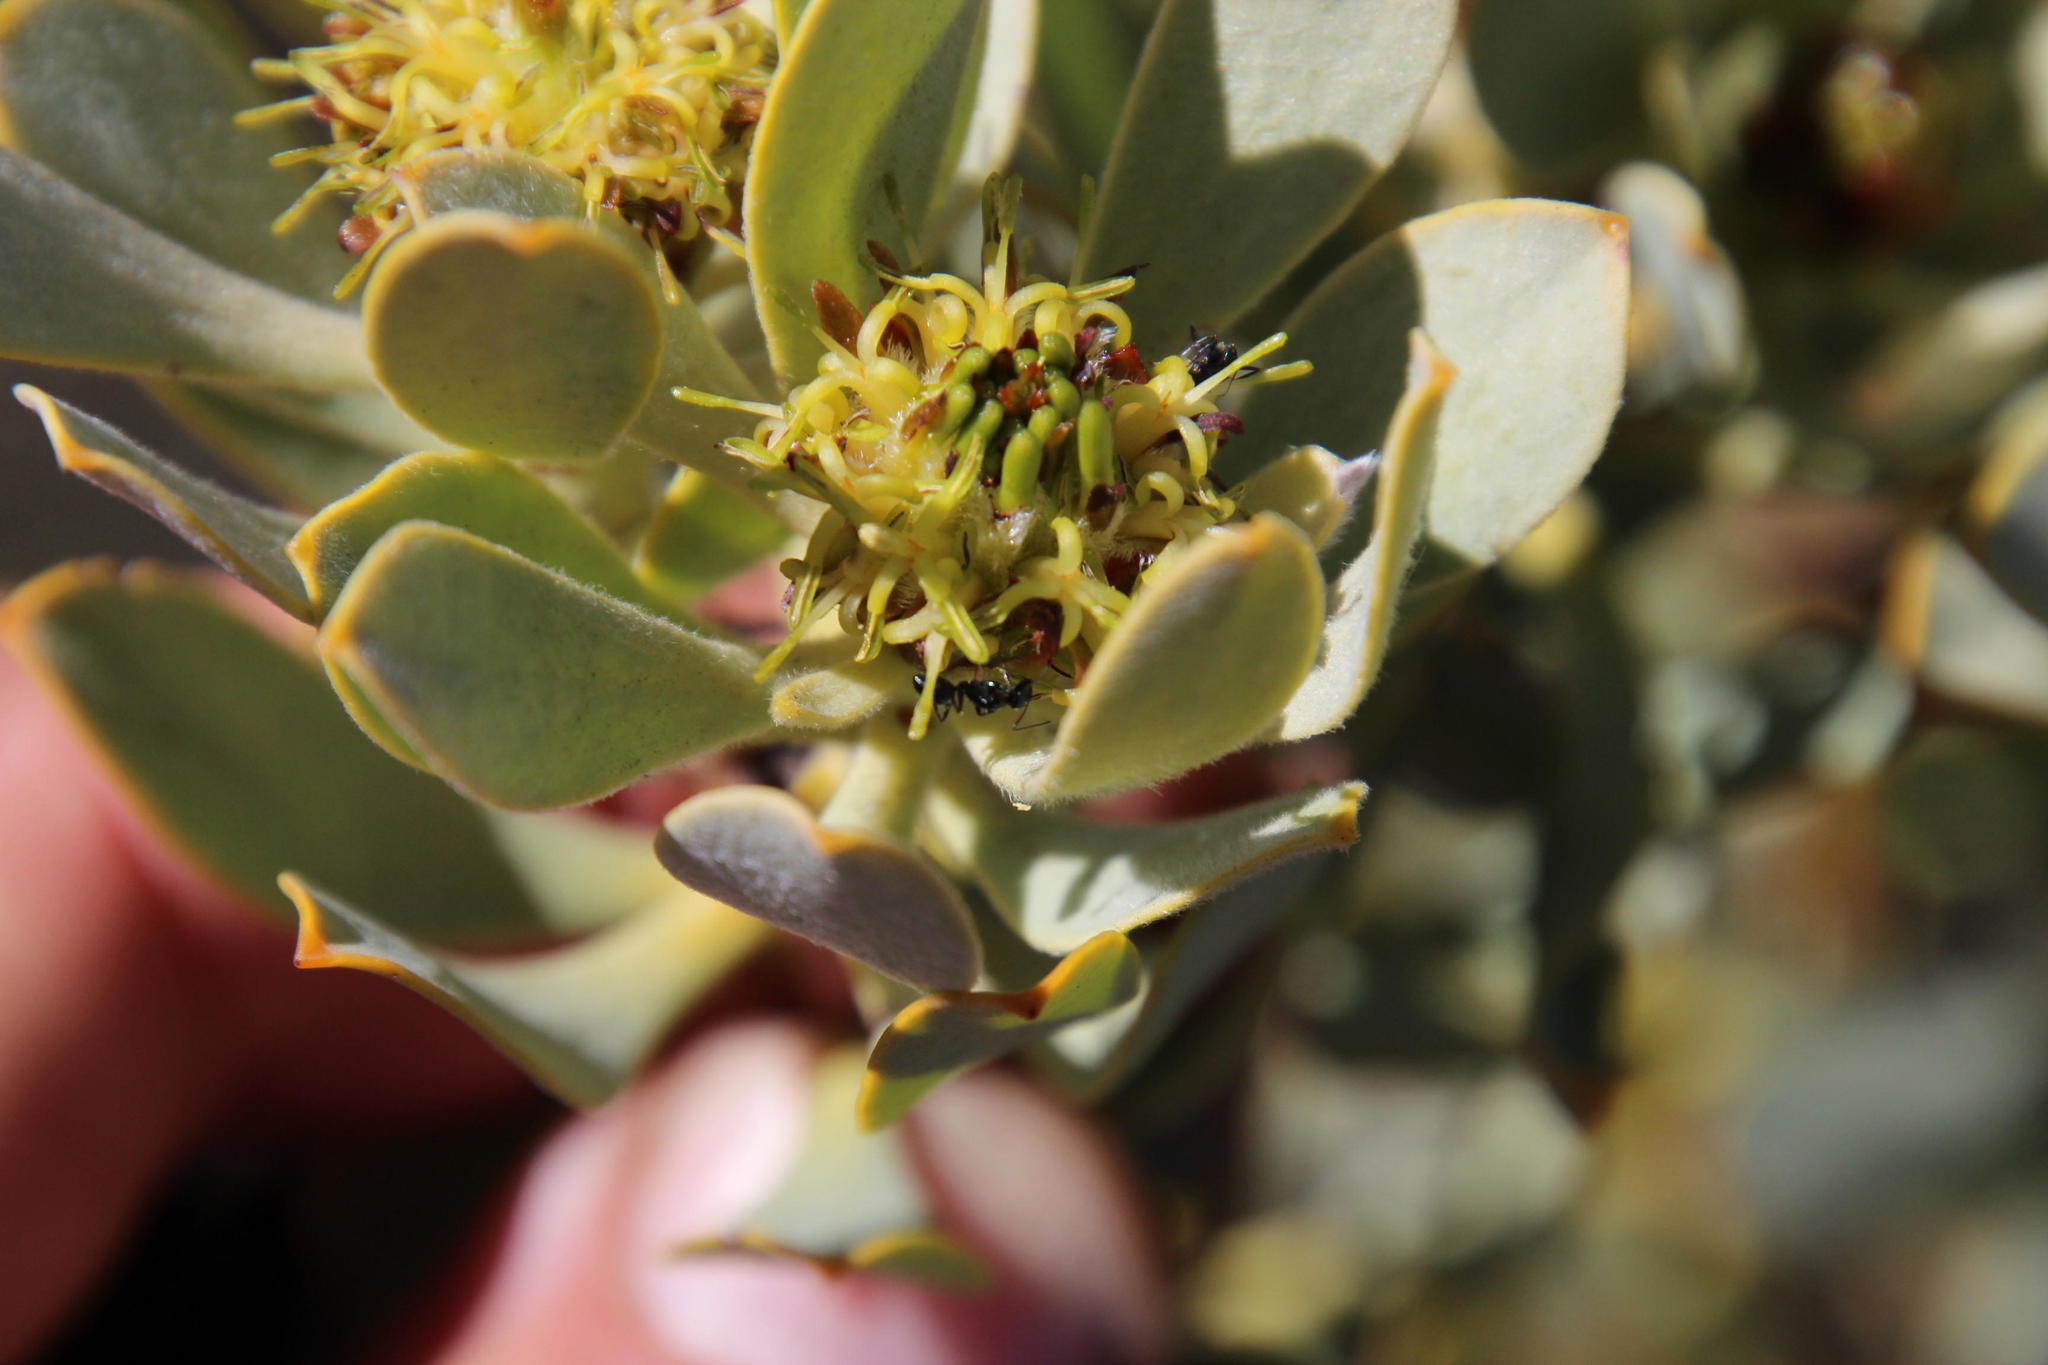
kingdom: Plantae
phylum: Tracheophyta
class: Magnoliopsida
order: Proteales
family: Proteaceae
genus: Leucadendron
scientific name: Leucadendron loranthifolium
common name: Green-flower sunbush
